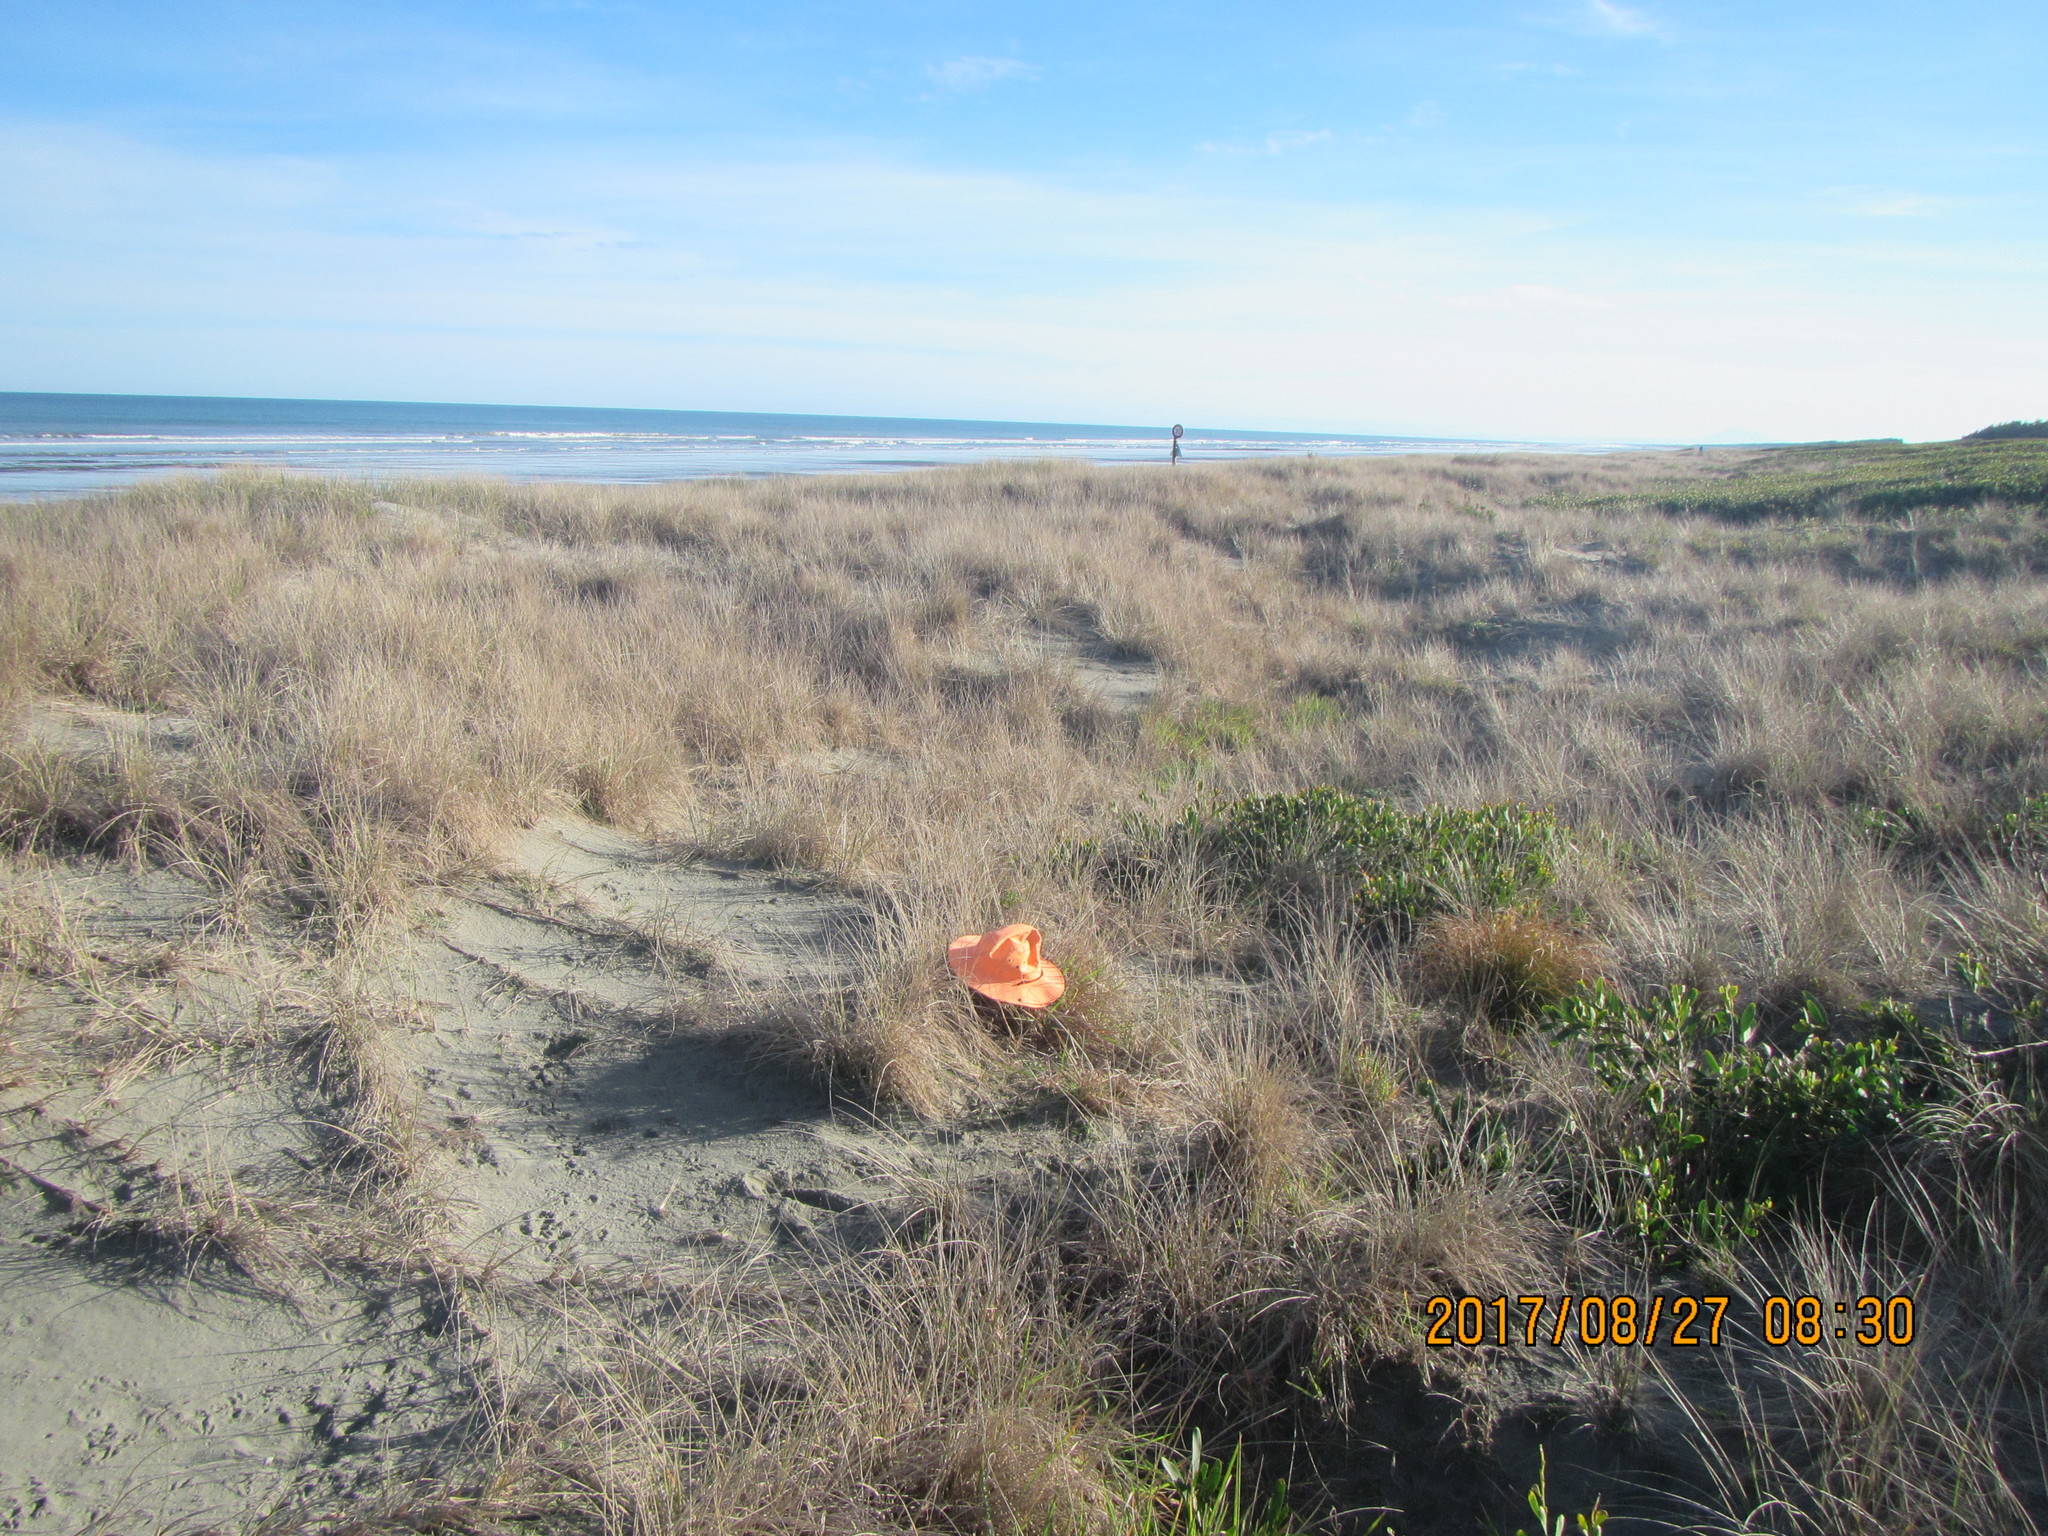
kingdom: Animalia
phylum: Arthropoda
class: Arachnida
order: Araneae
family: Thomisidae
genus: Sidymella
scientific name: Sidymella trapezia
